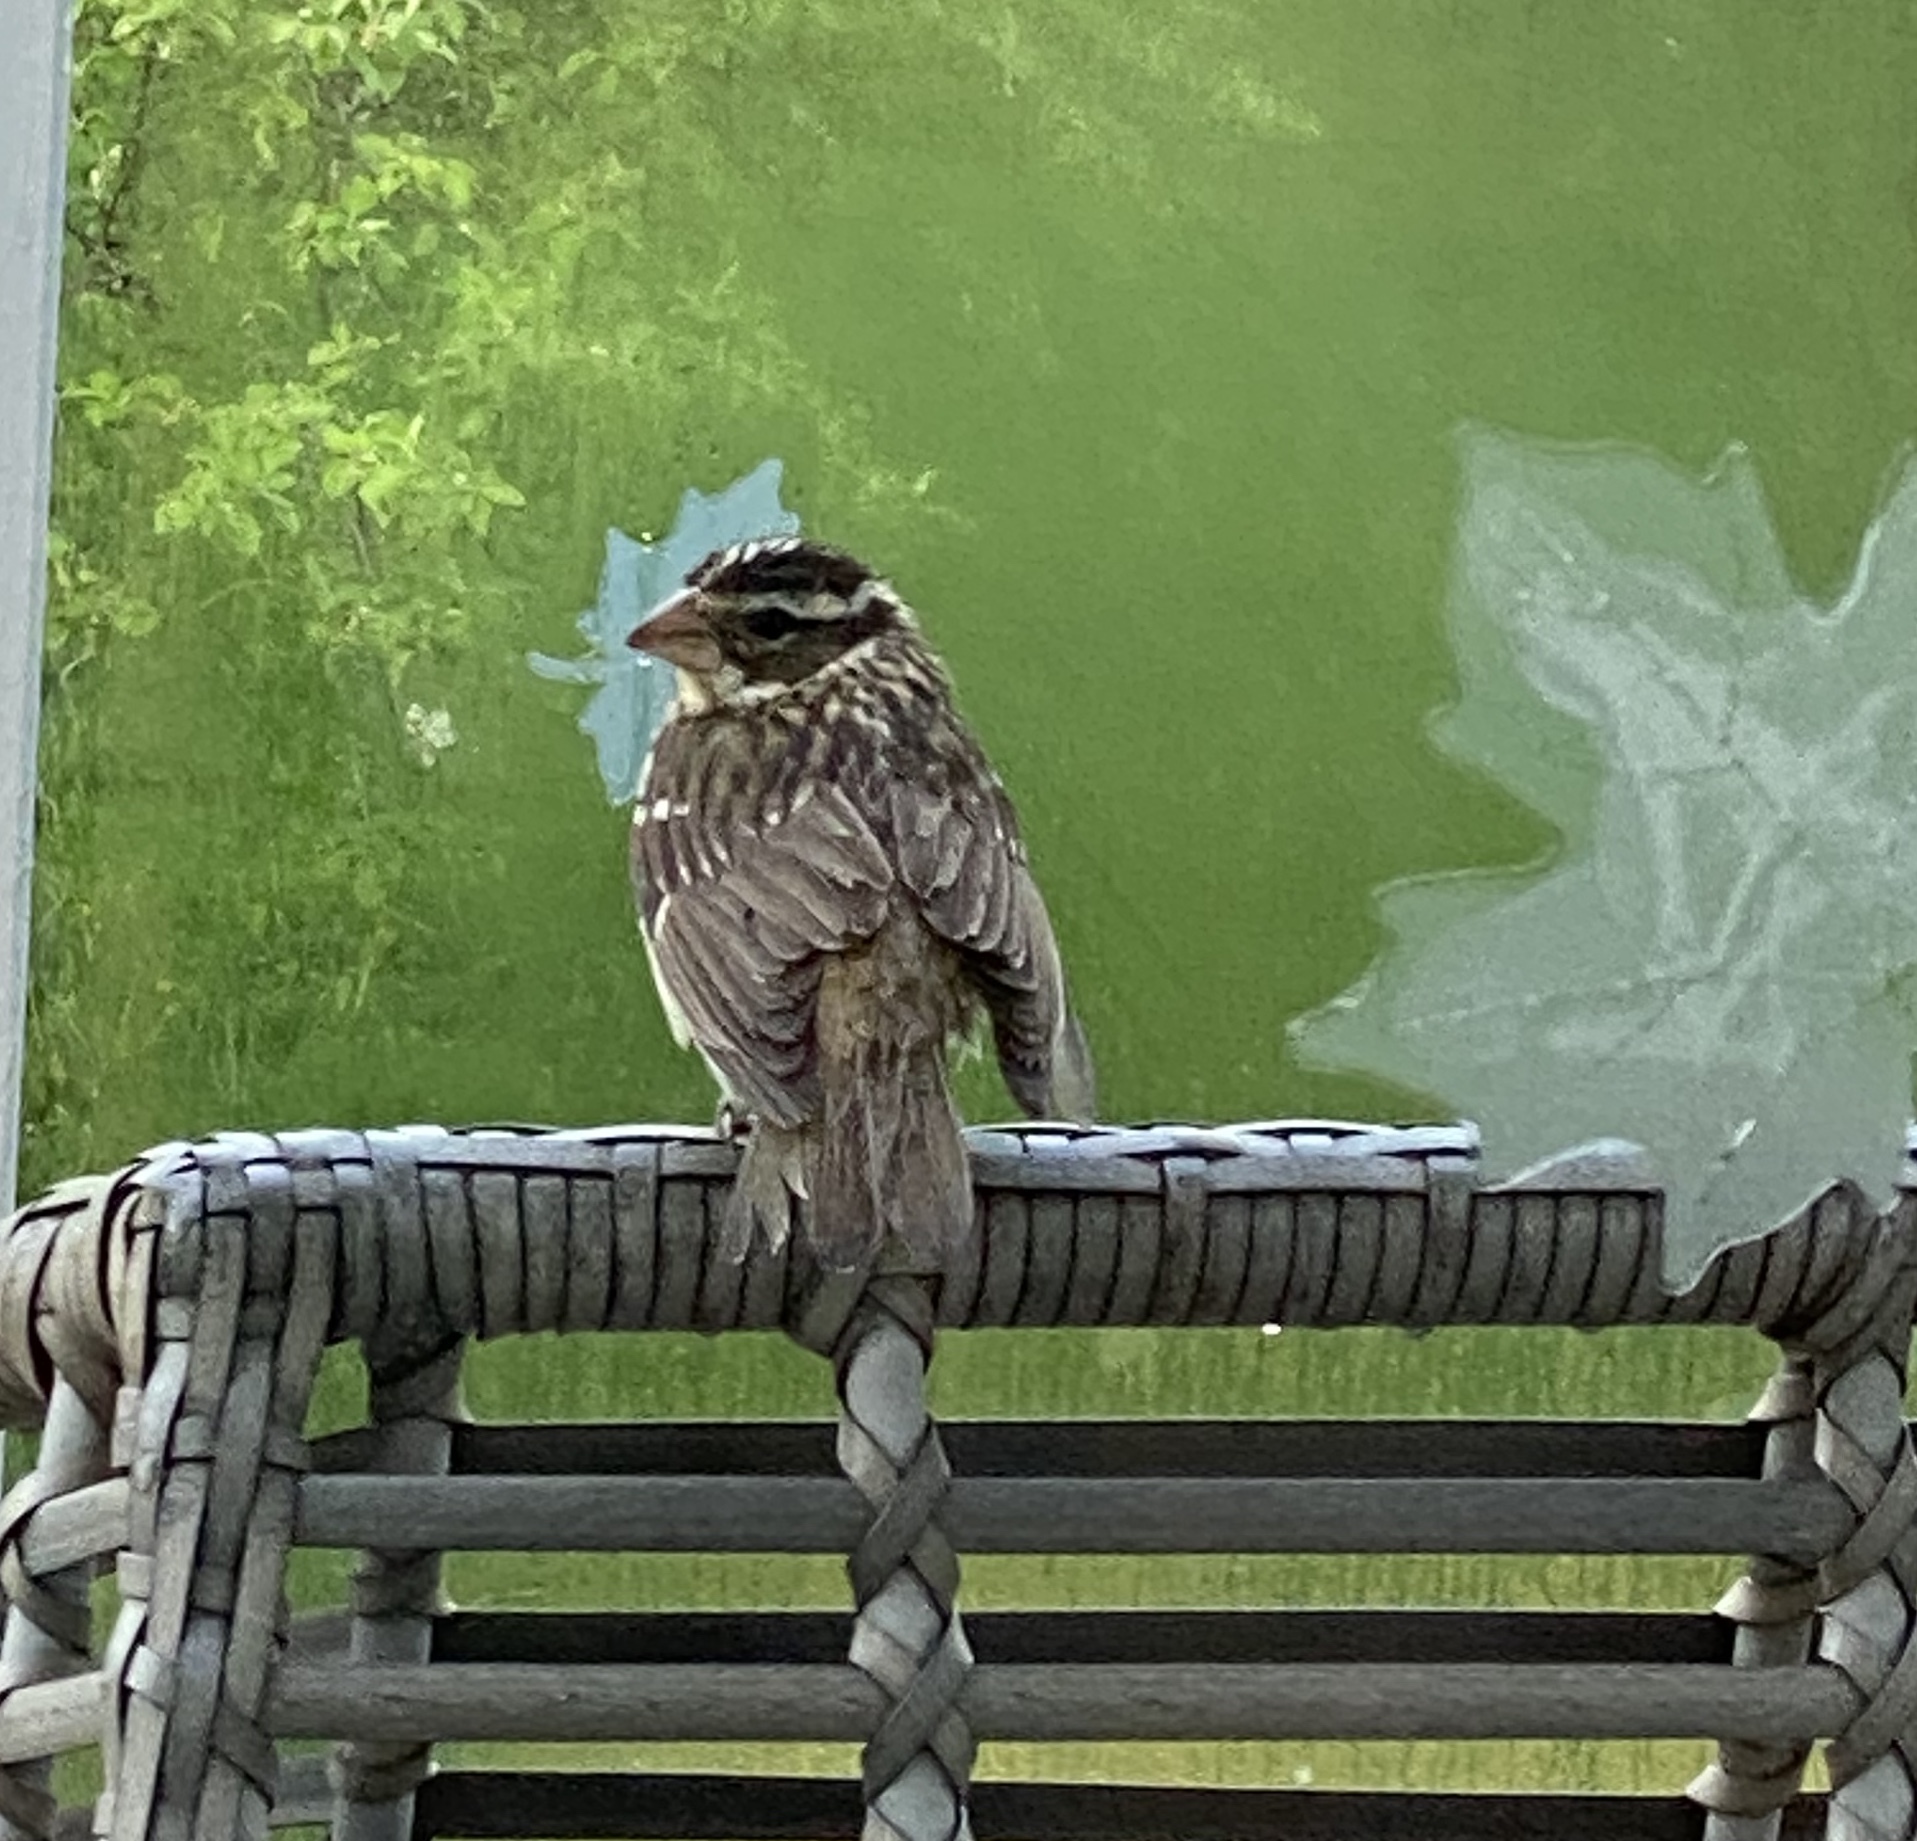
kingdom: Animalia
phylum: Chordata
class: Aves
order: Passeriformes
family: Cardinalidae
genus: Pheucticus
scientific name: Pheucticus ludovicianus
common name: Rose-breasted grosbeak
